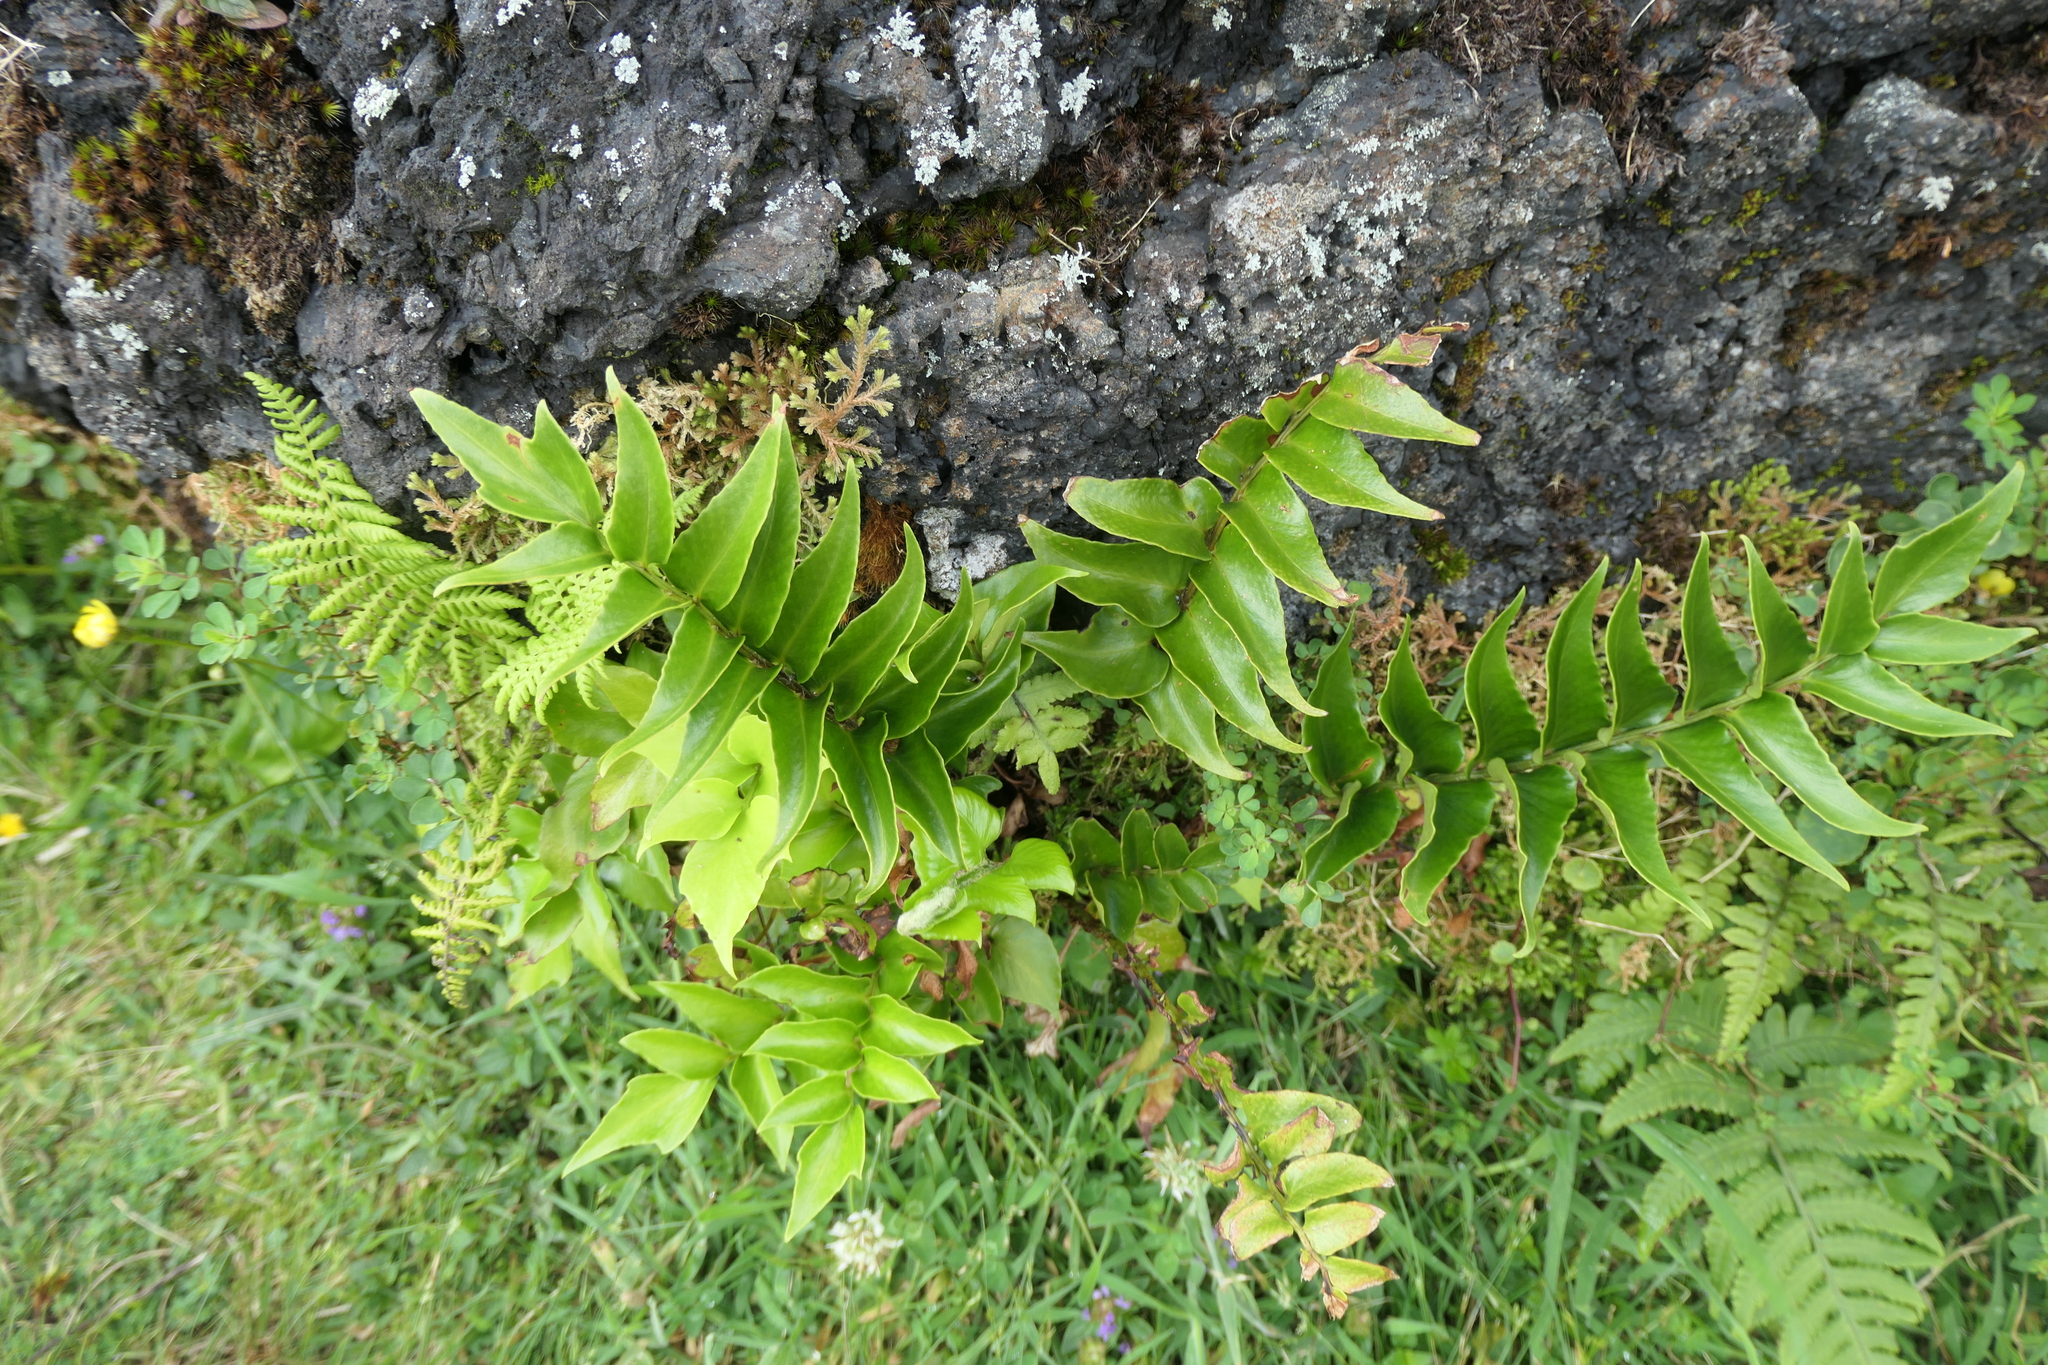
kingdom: Plantae
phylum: Tracheophyta
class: Polypodiopsida
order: Polypodiales
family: Dryopteridaceae
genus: Cyrtomium
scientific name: Cyrtomium falcatum
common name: House holly-fern
